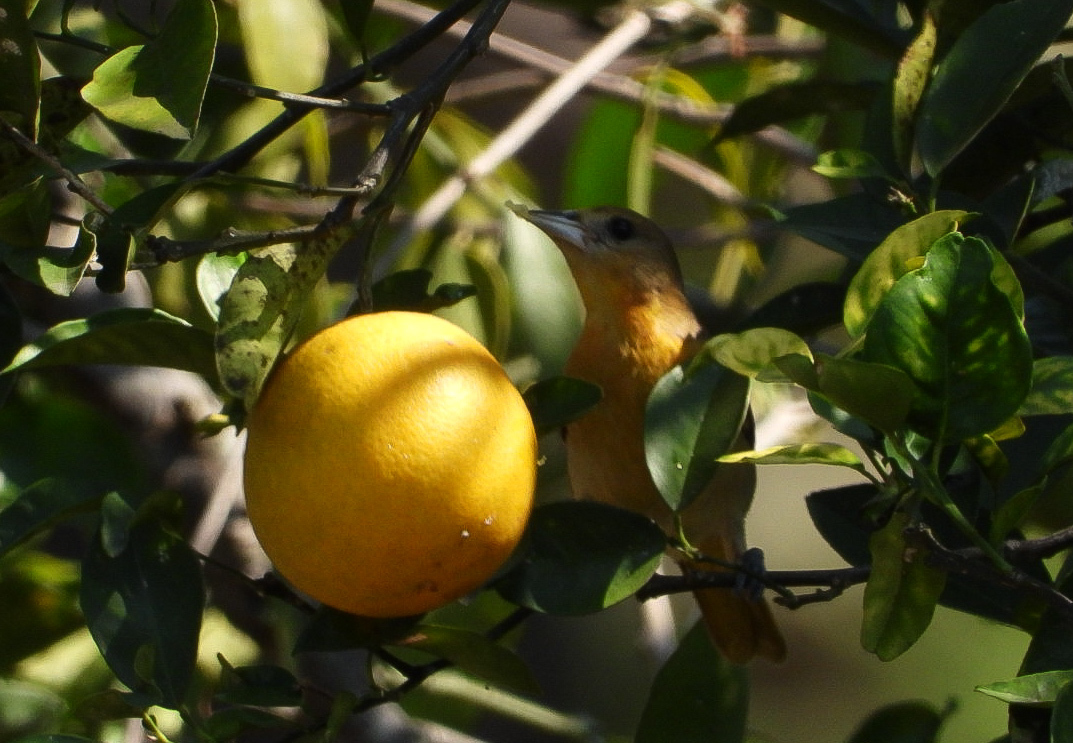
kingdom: Animalia
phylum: Chordata
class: Aves
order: Passeriformes
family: Icteridae
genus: Icterus
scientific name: Icterus galbula
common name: Baltimore oriole
